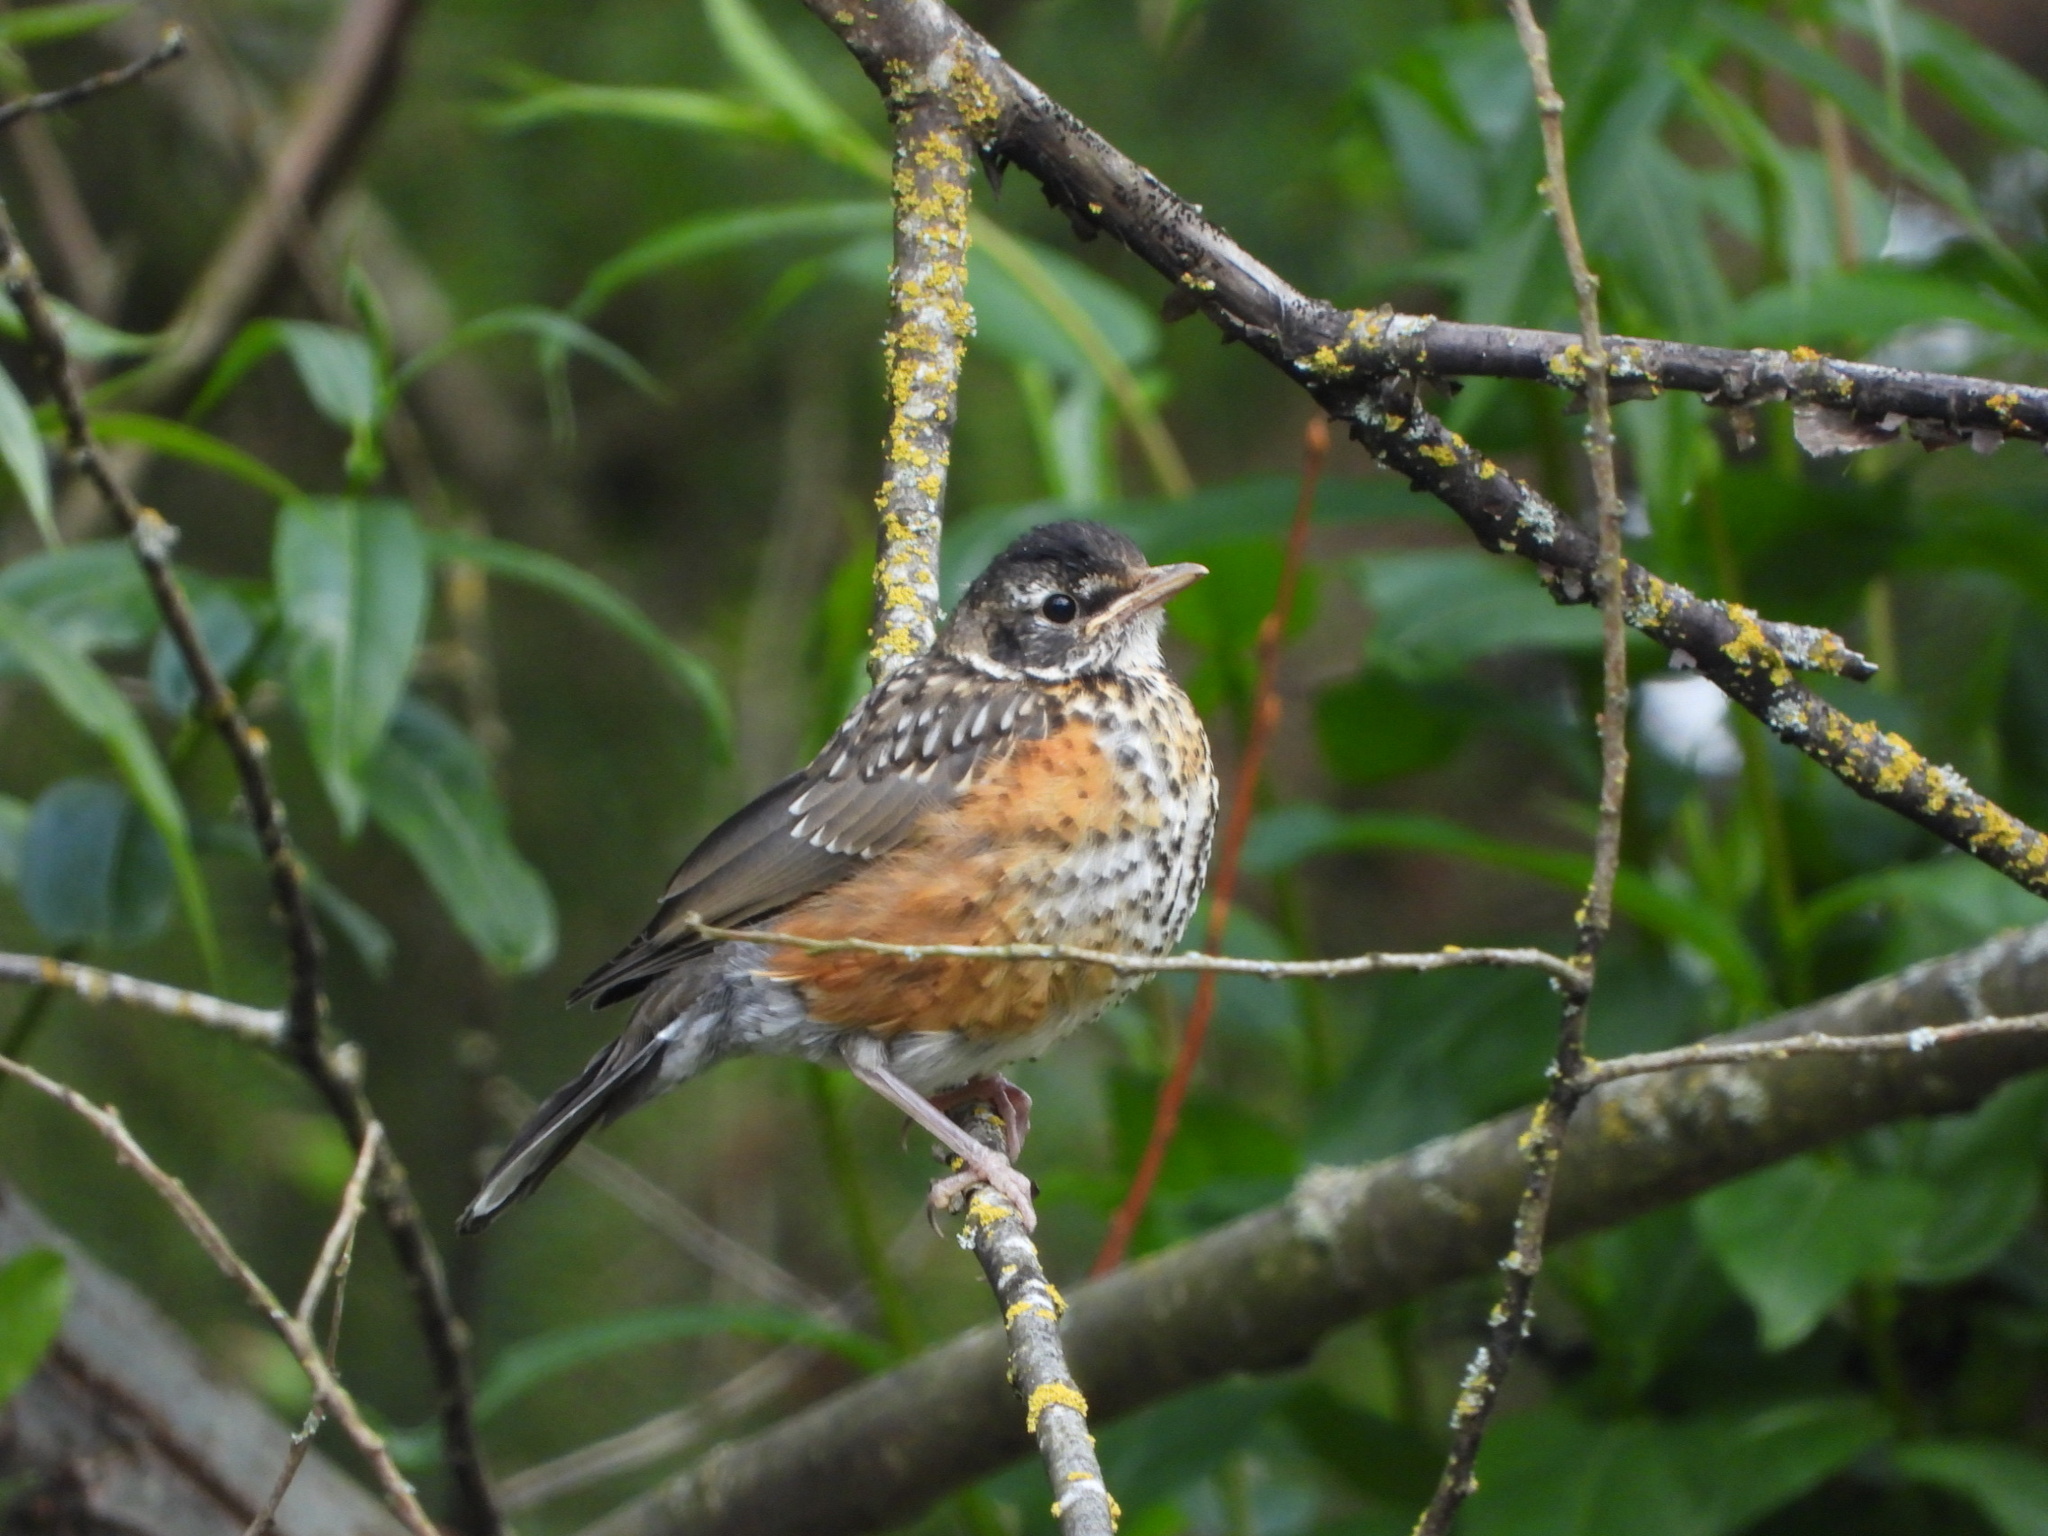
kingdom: Animalia
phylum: Chordata
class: Aves
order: Passeriformes
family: Turdidae
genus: Turdus
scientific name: Turdus migratorius
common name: American robin
